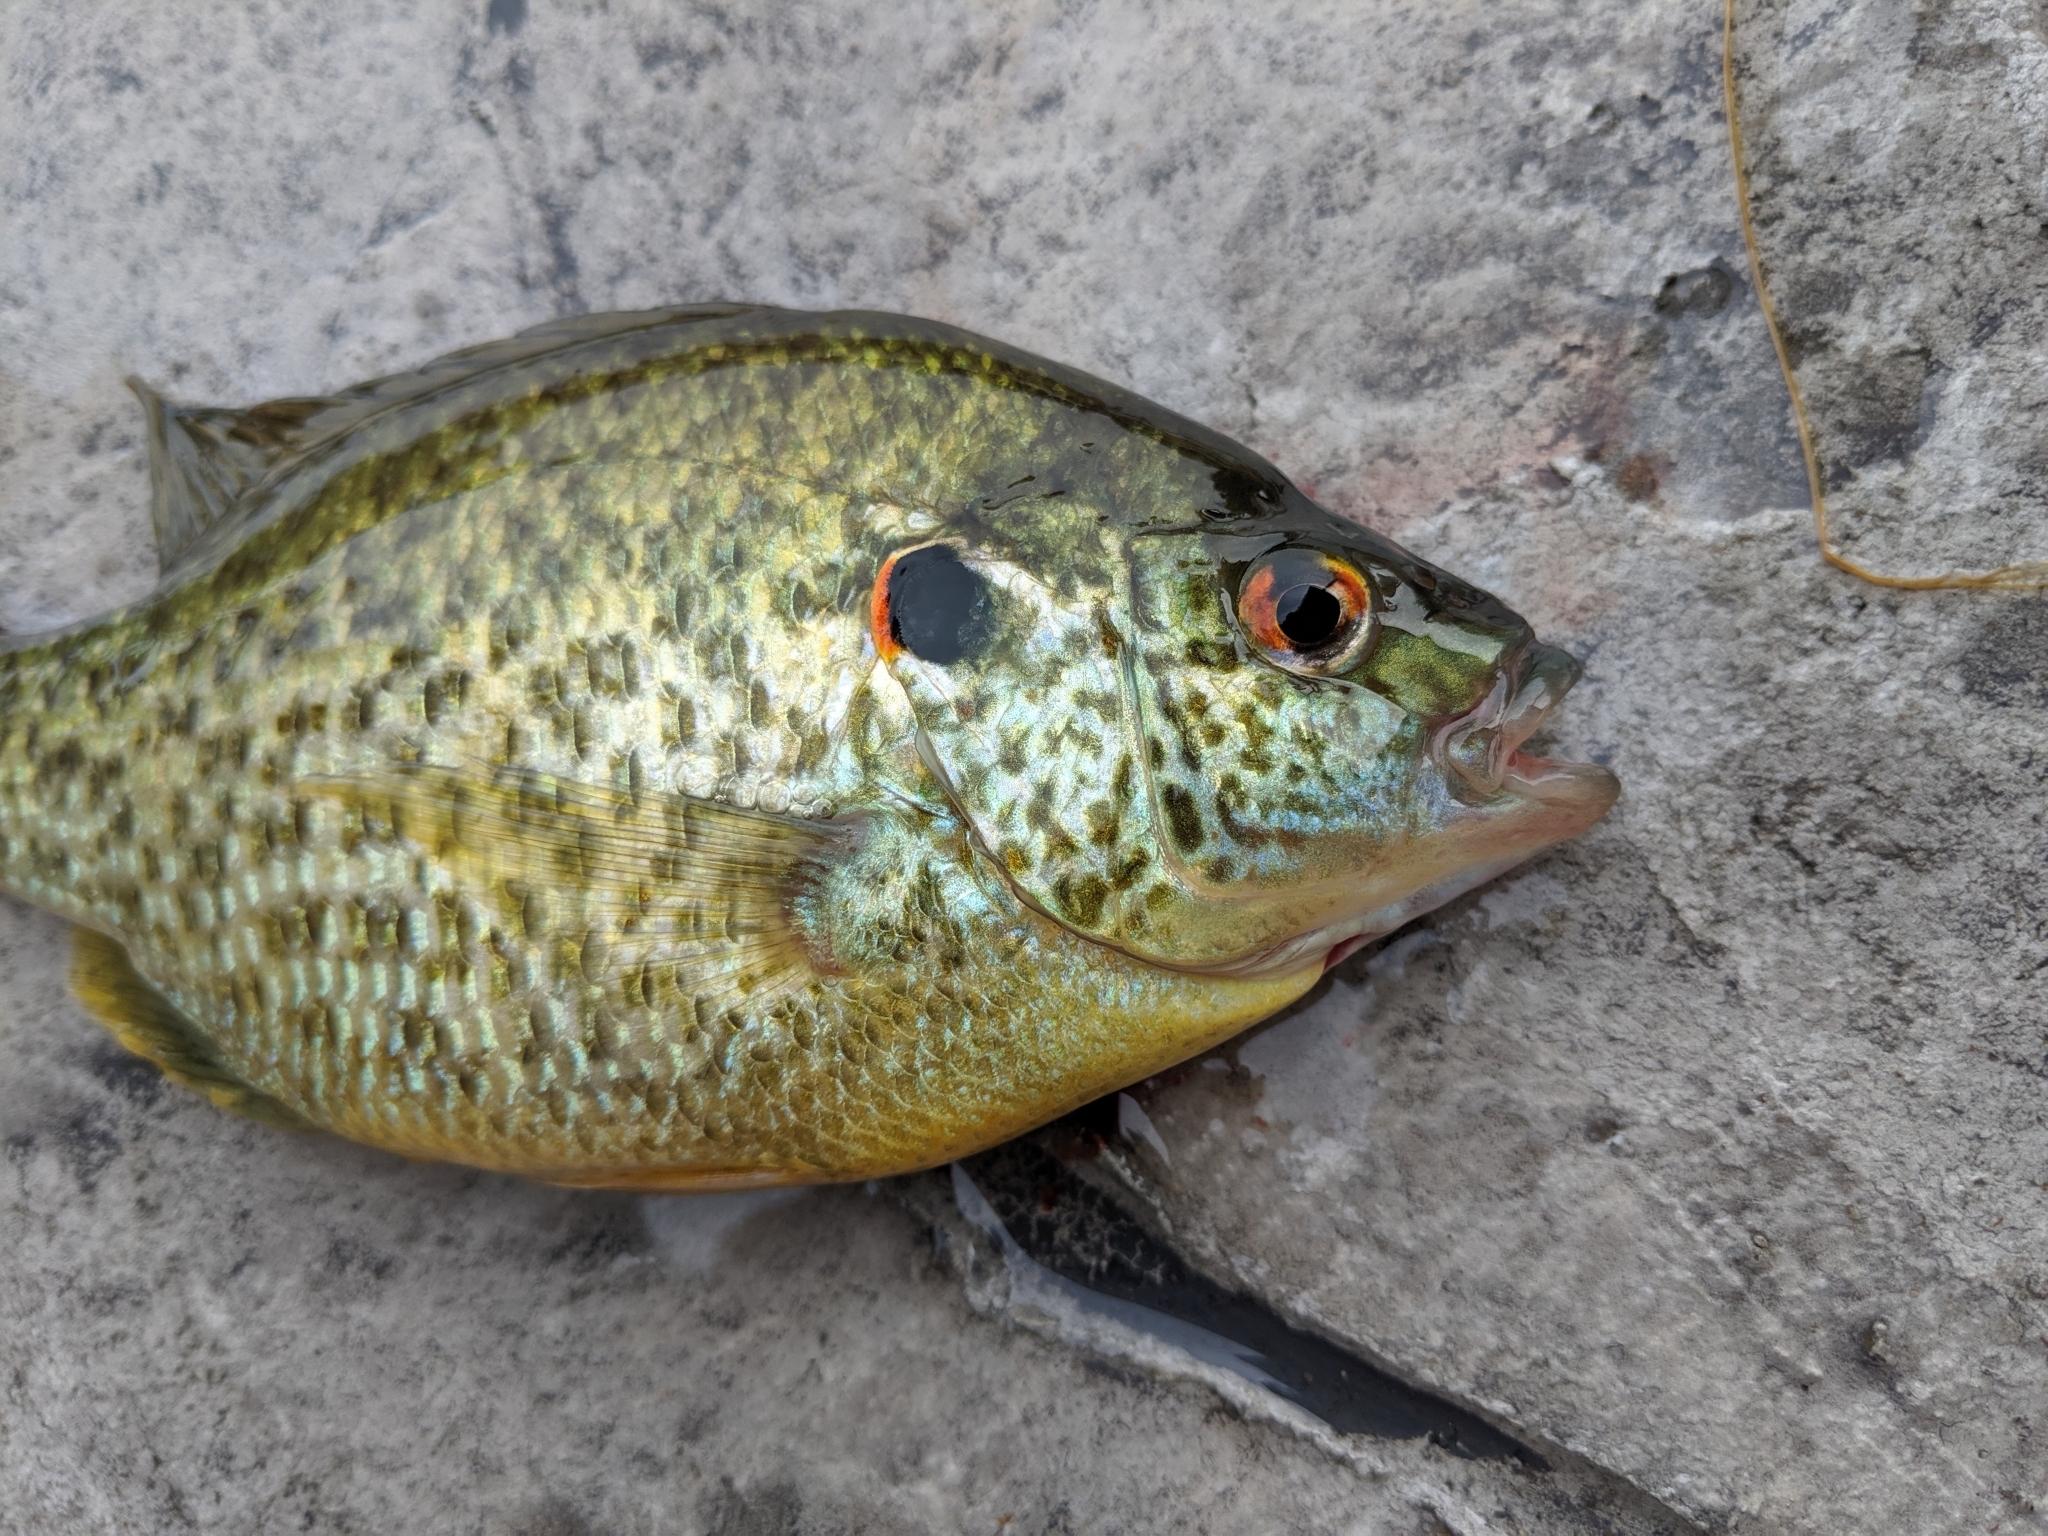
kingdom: Animalia
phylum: Chordata
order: Perciformes
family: Centrarchidae
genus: Lepomis
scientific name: Lepomis microlophus
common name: Redear sunfish
